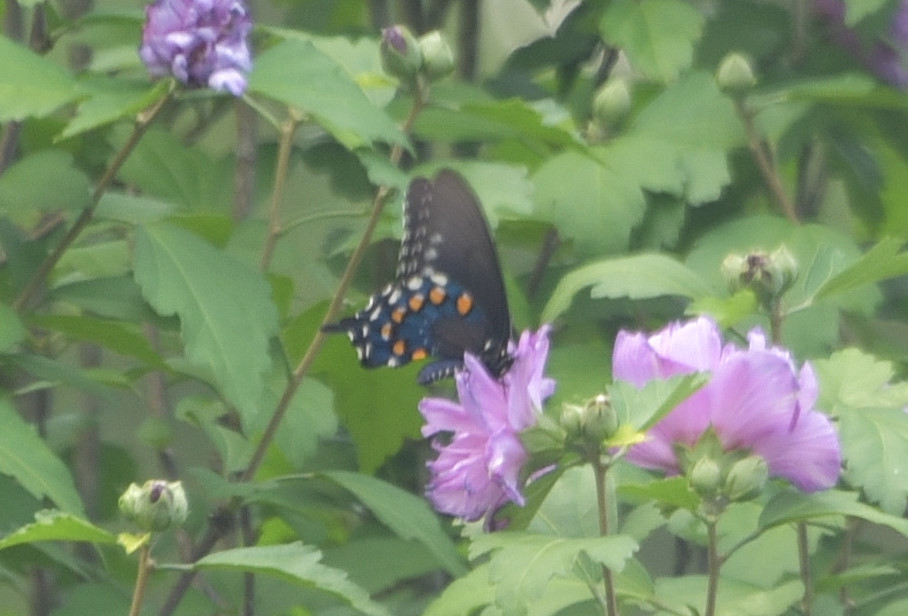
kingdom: Animalia
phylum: Arthropoda
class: Insecta
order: Lepidoptera
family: Papilionidae
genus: Battus
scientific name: Battus philenor
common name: Pipevine swallowtail
